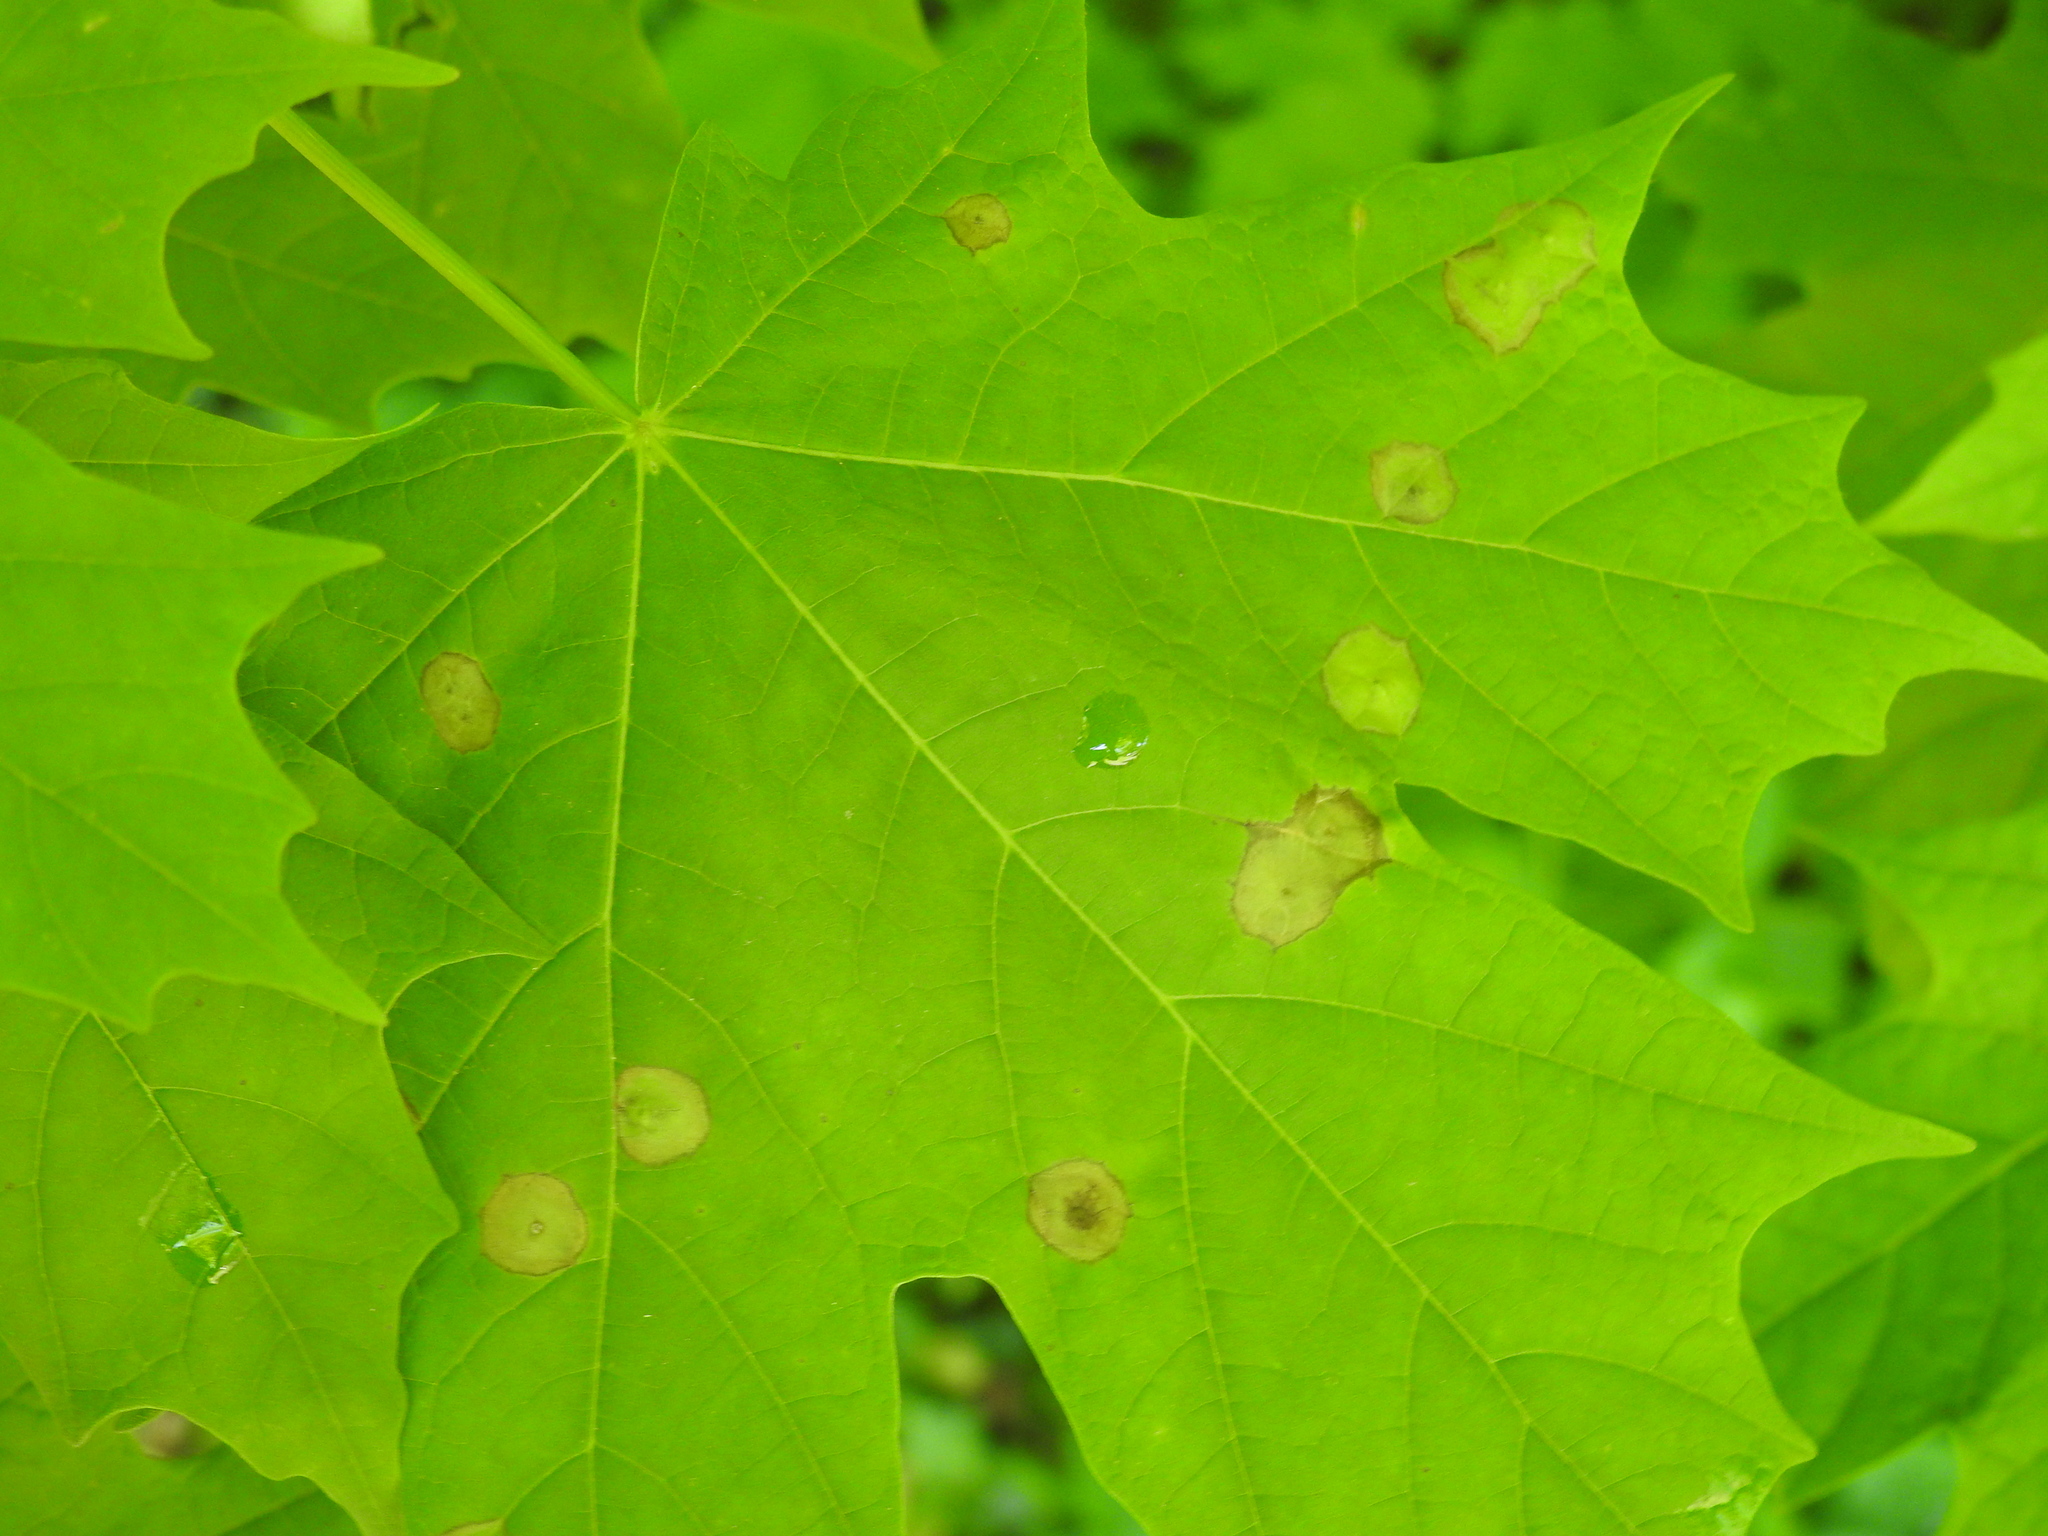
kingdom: Animalia
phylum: Arthropoda
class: Insecta
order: Diptera
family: Cecidomyiidae
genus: Acericecis
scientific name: Acericecis ocellaris
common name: Ocellate gall midge
